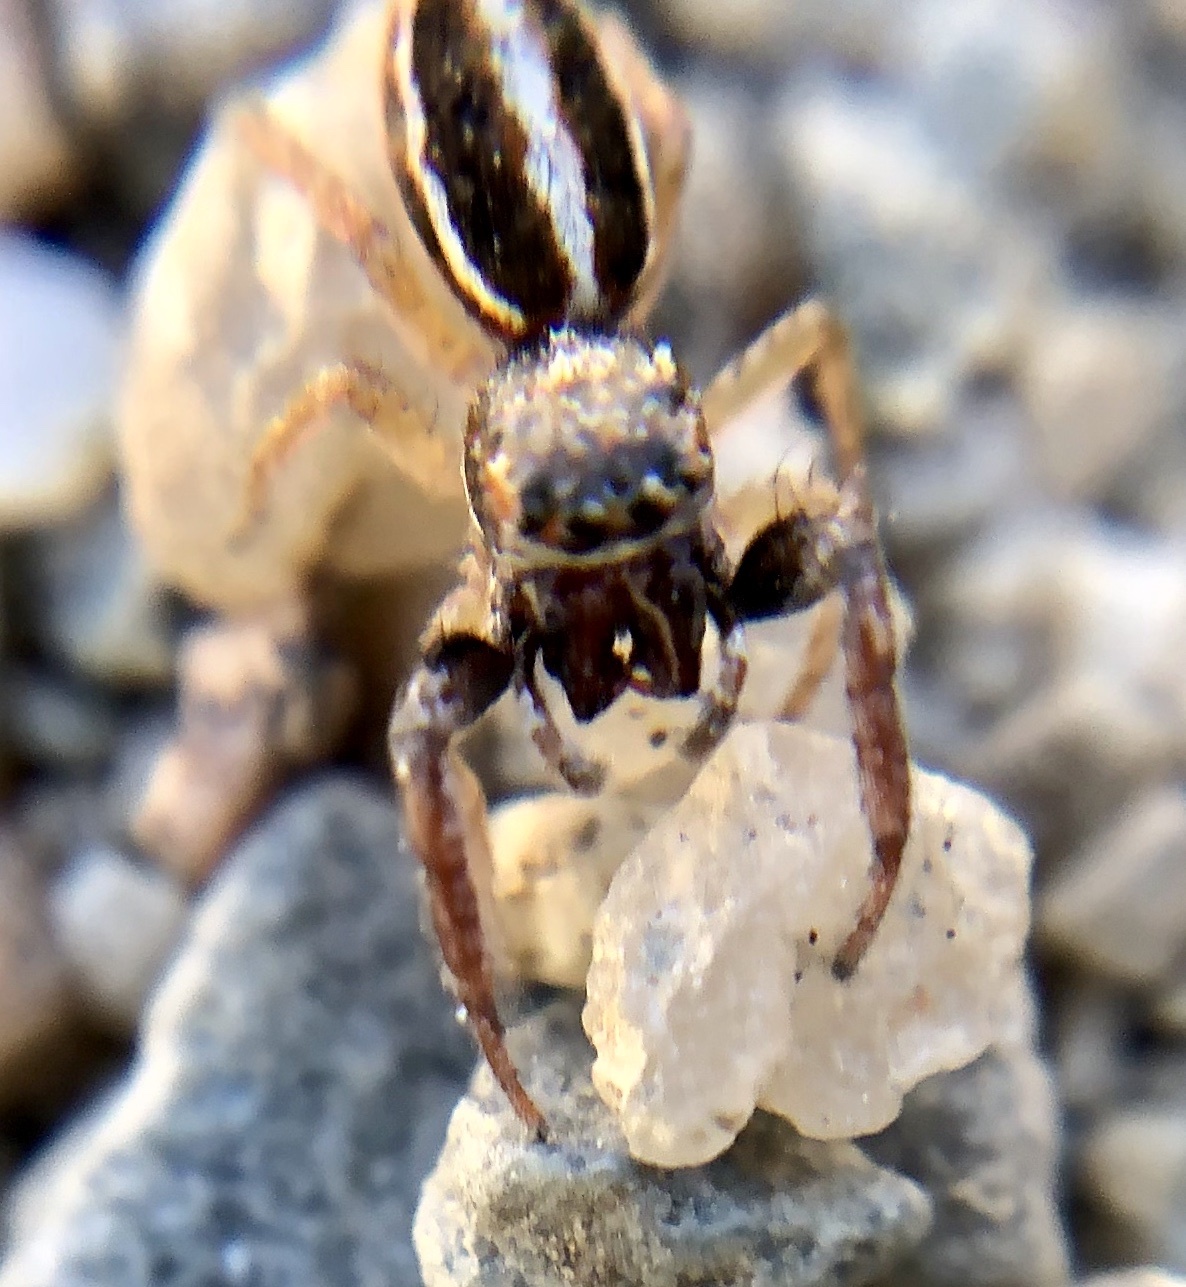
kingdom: Animalia
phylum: Arthropoda
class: Arachnida
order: Araneae
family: Salticidae
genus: Icius
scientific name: Icius subinermis
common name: Jumping spider
